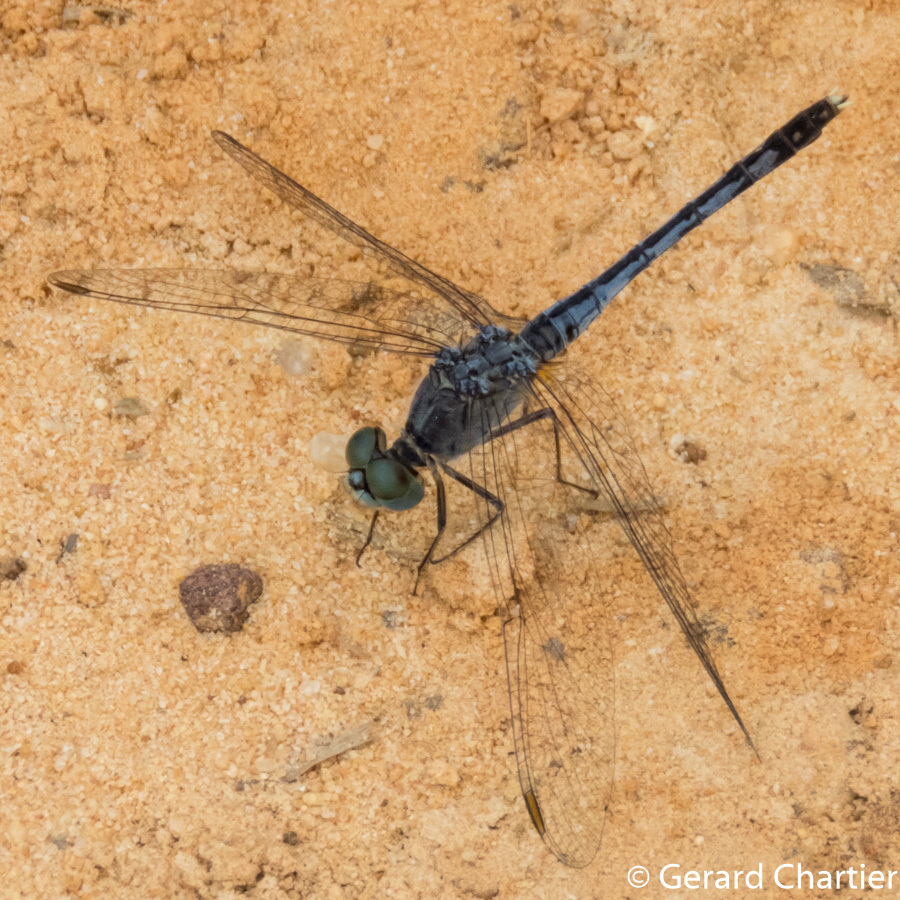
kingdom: Animalia
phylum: Arthropoda
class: Insecta
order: Odonata
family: Libellulidae
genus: Diplacodes
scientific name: Diplacodes trivialis
